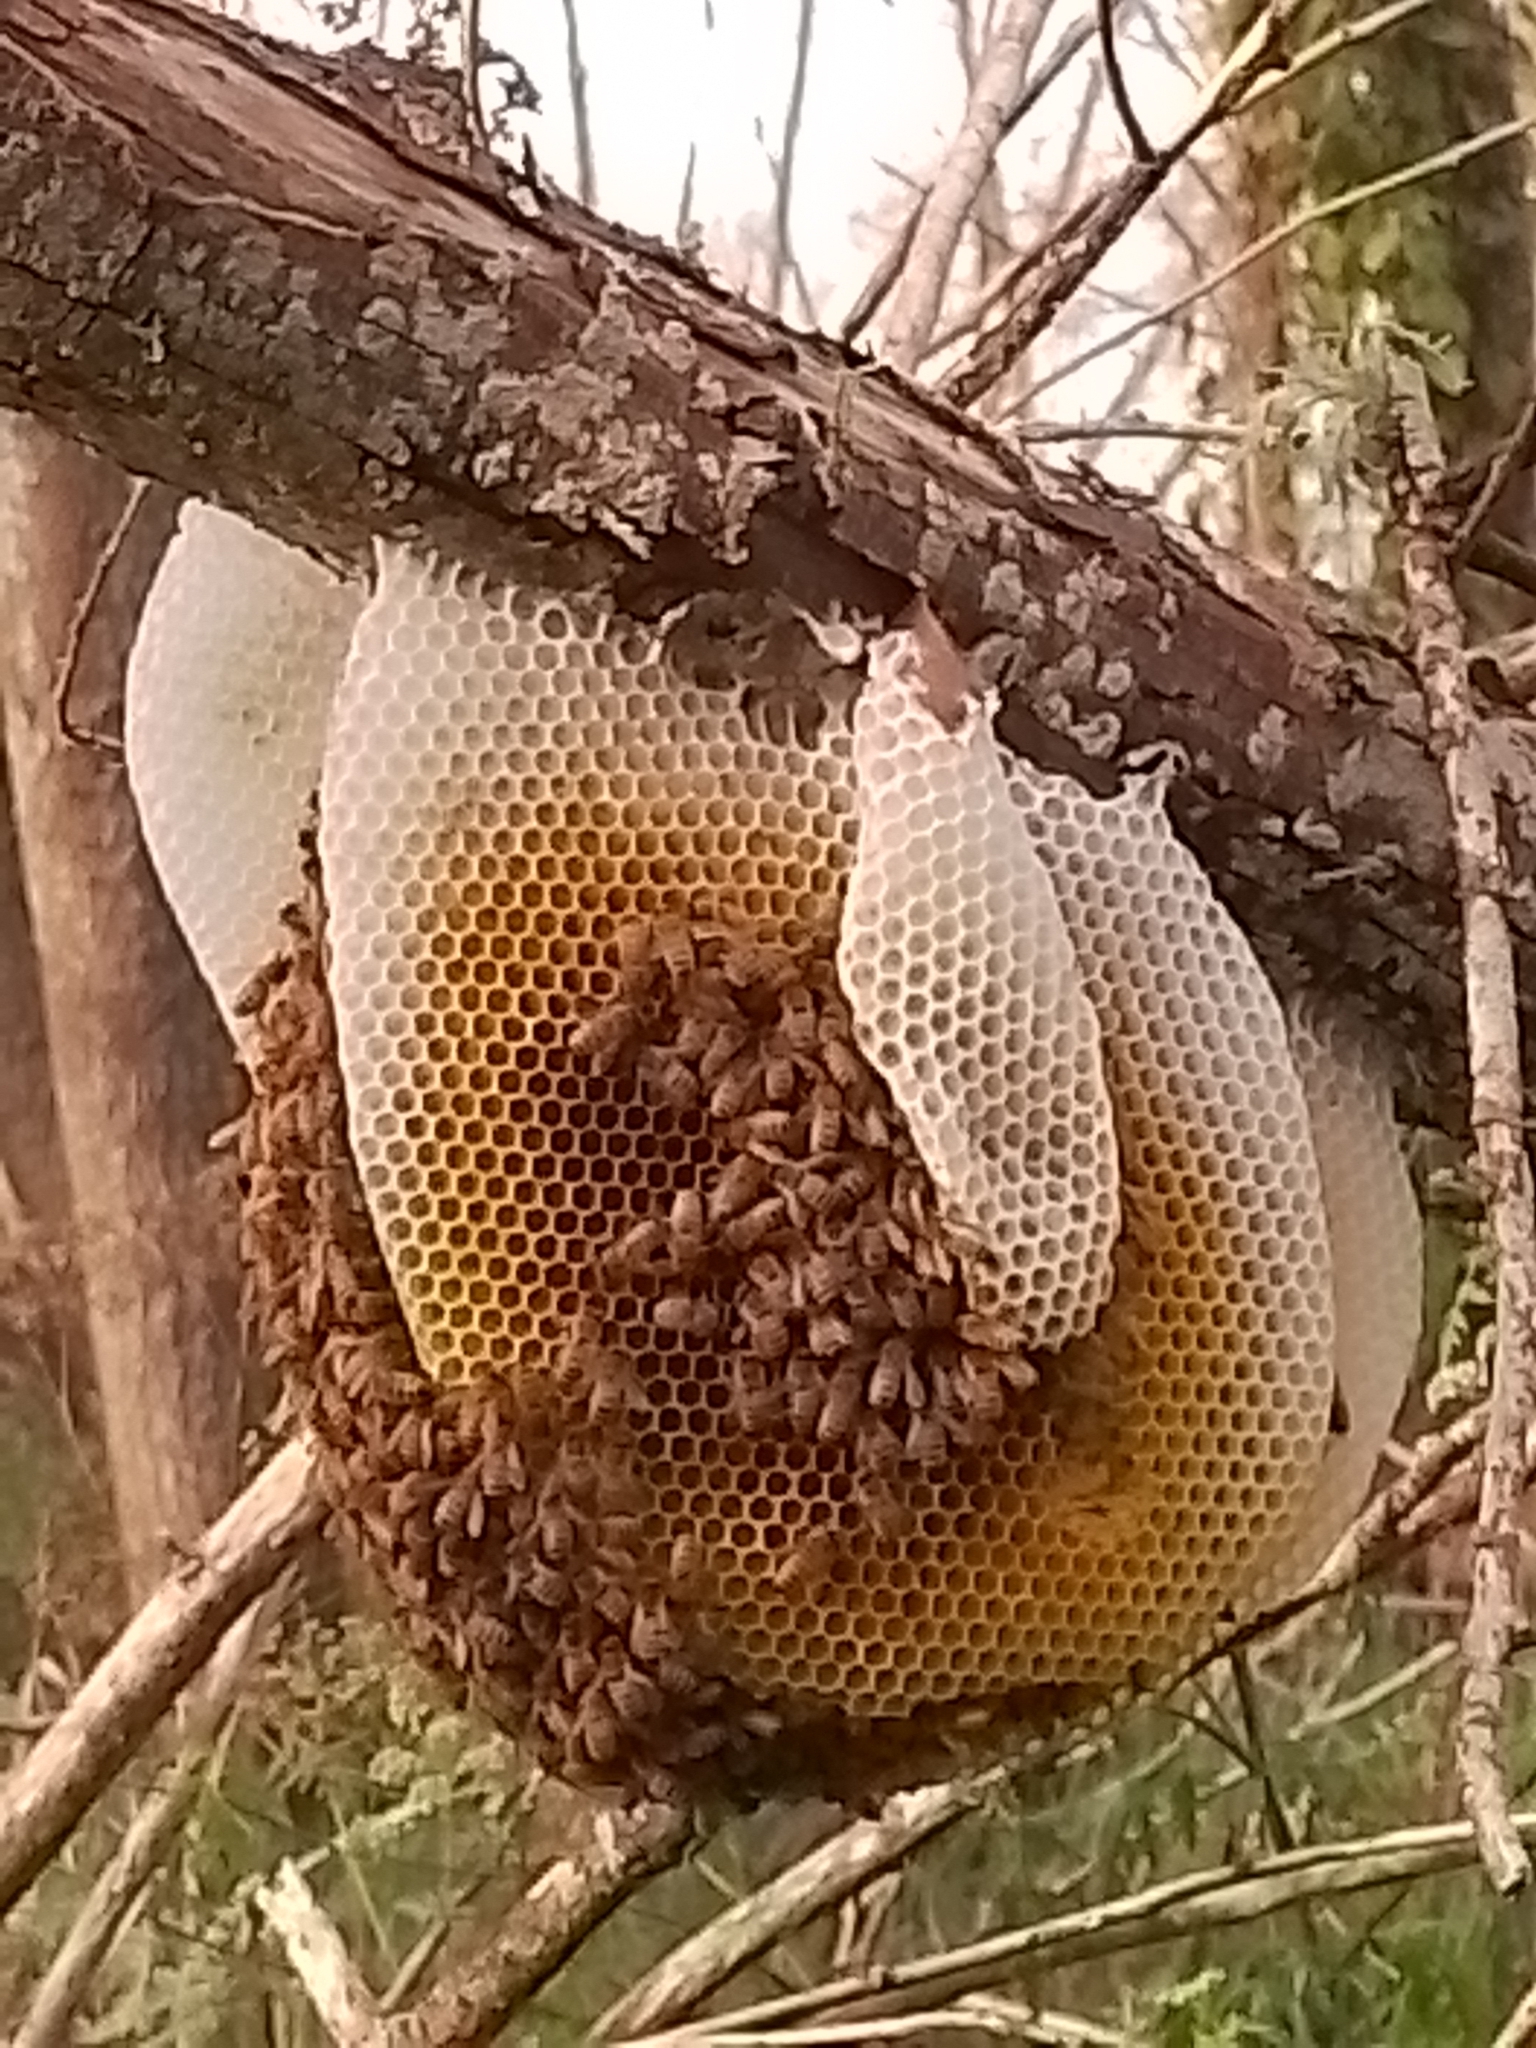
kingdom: Animalia
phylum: Arthropoda
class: Insecta
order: Hymenoptera
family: Apidae
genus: Apis
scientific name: Apis mellifera
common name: Honey bee
